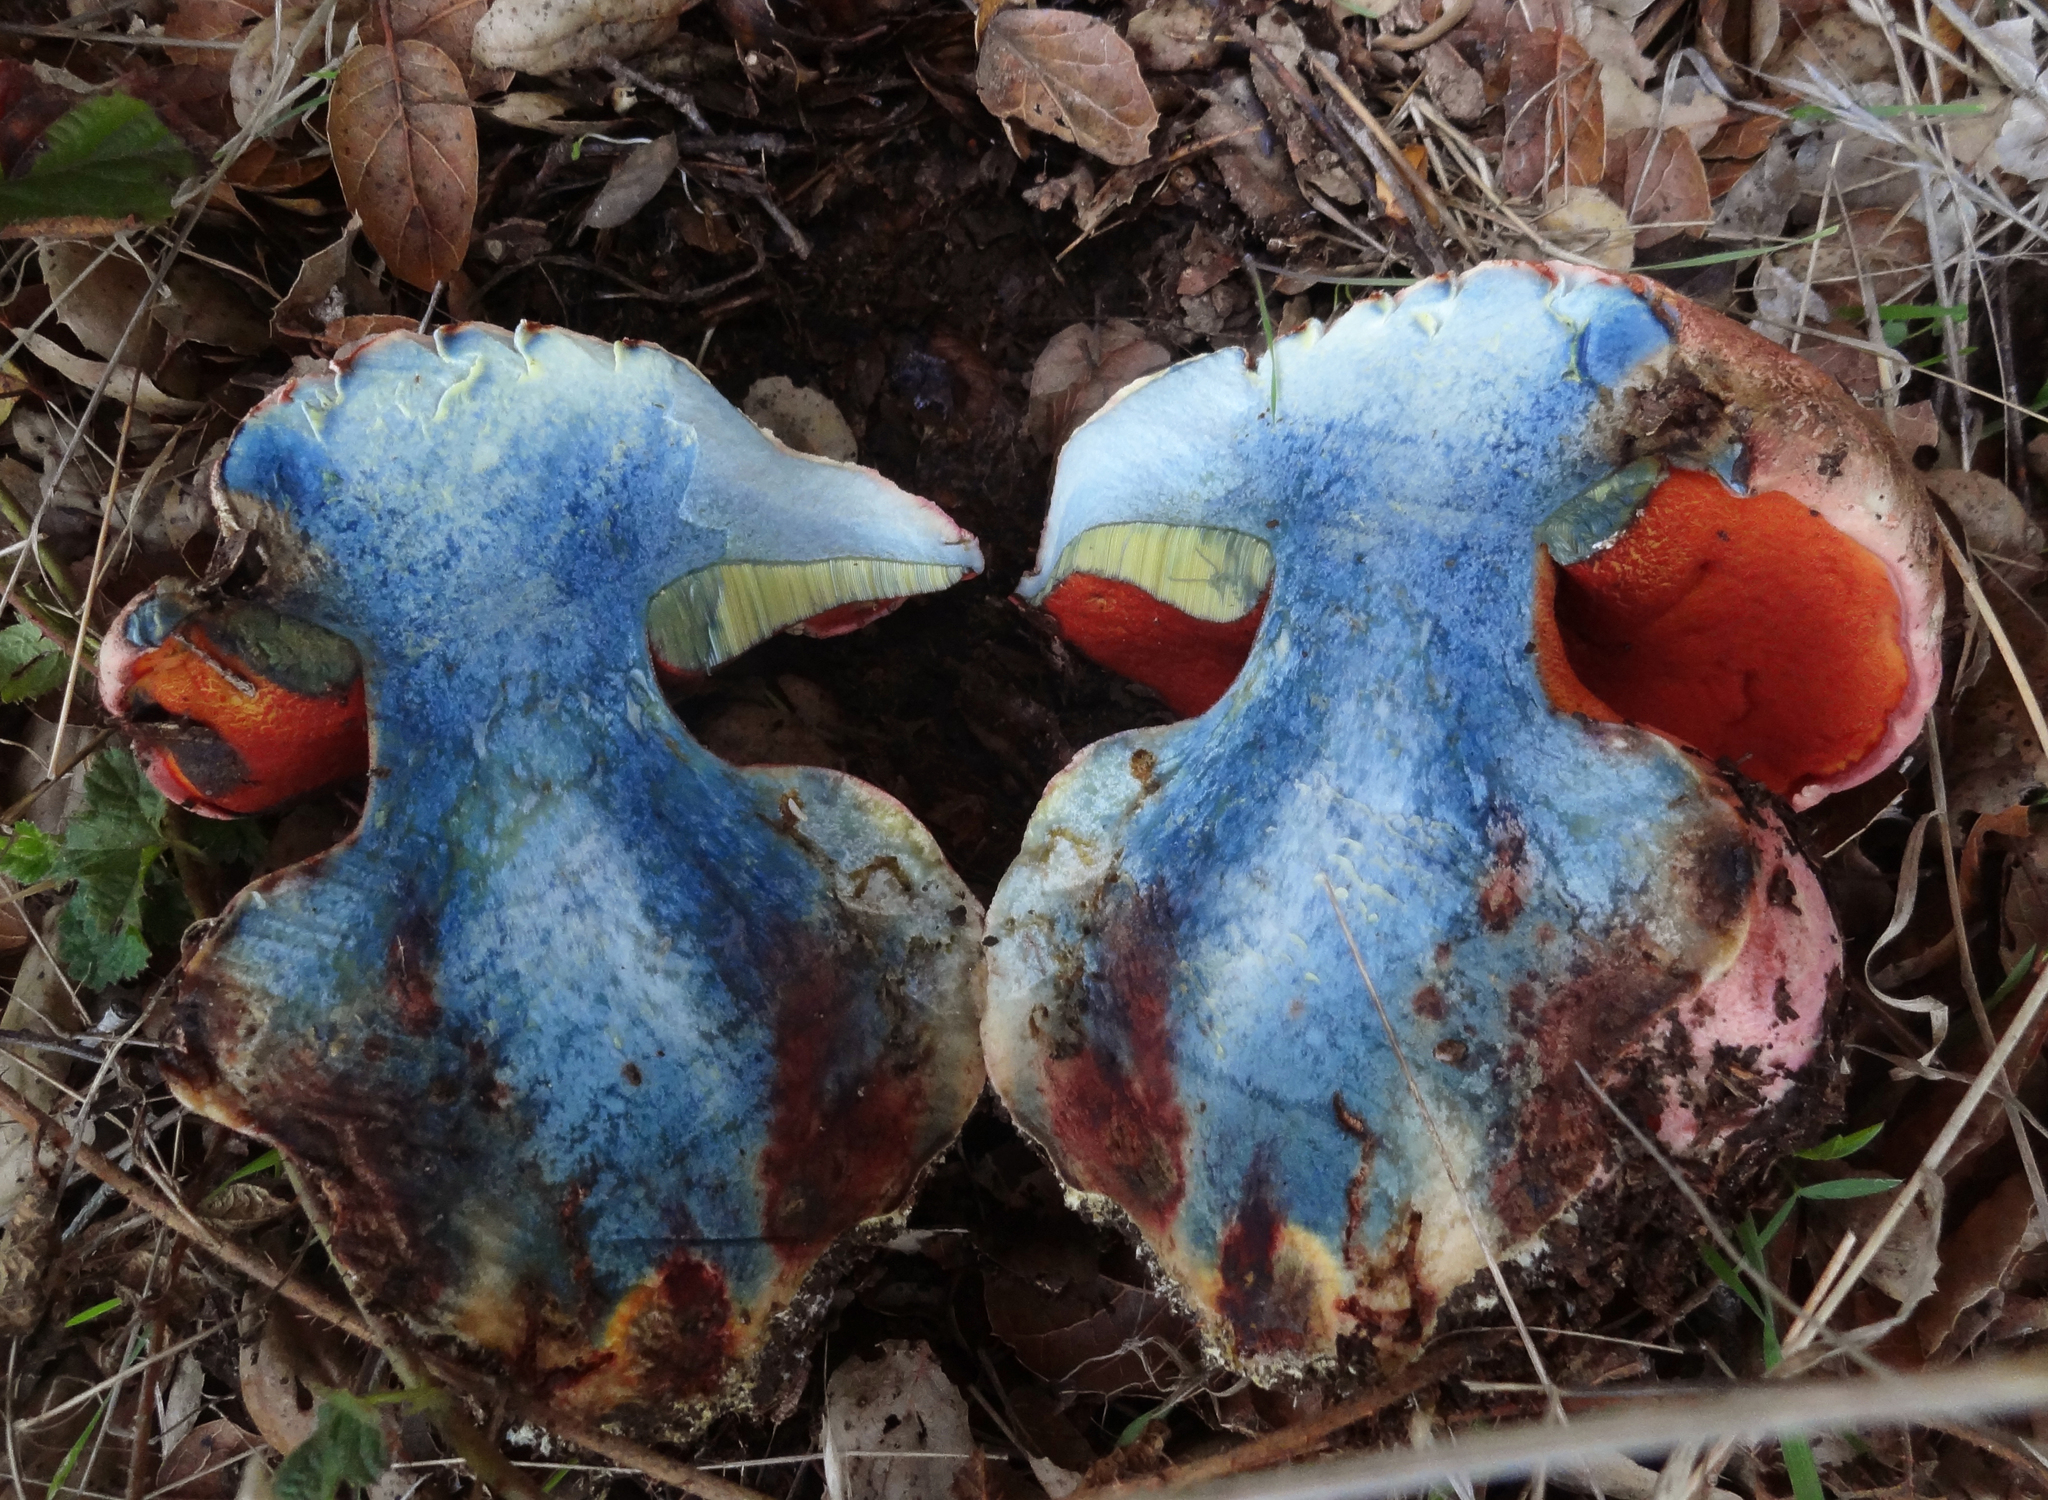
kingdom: Fungi
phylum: Basidiomycota
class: Agaricomycetes
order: Boletales
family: Boletaceae
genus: Rubroboletus
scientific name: Rubroboletus eastwoodiae
